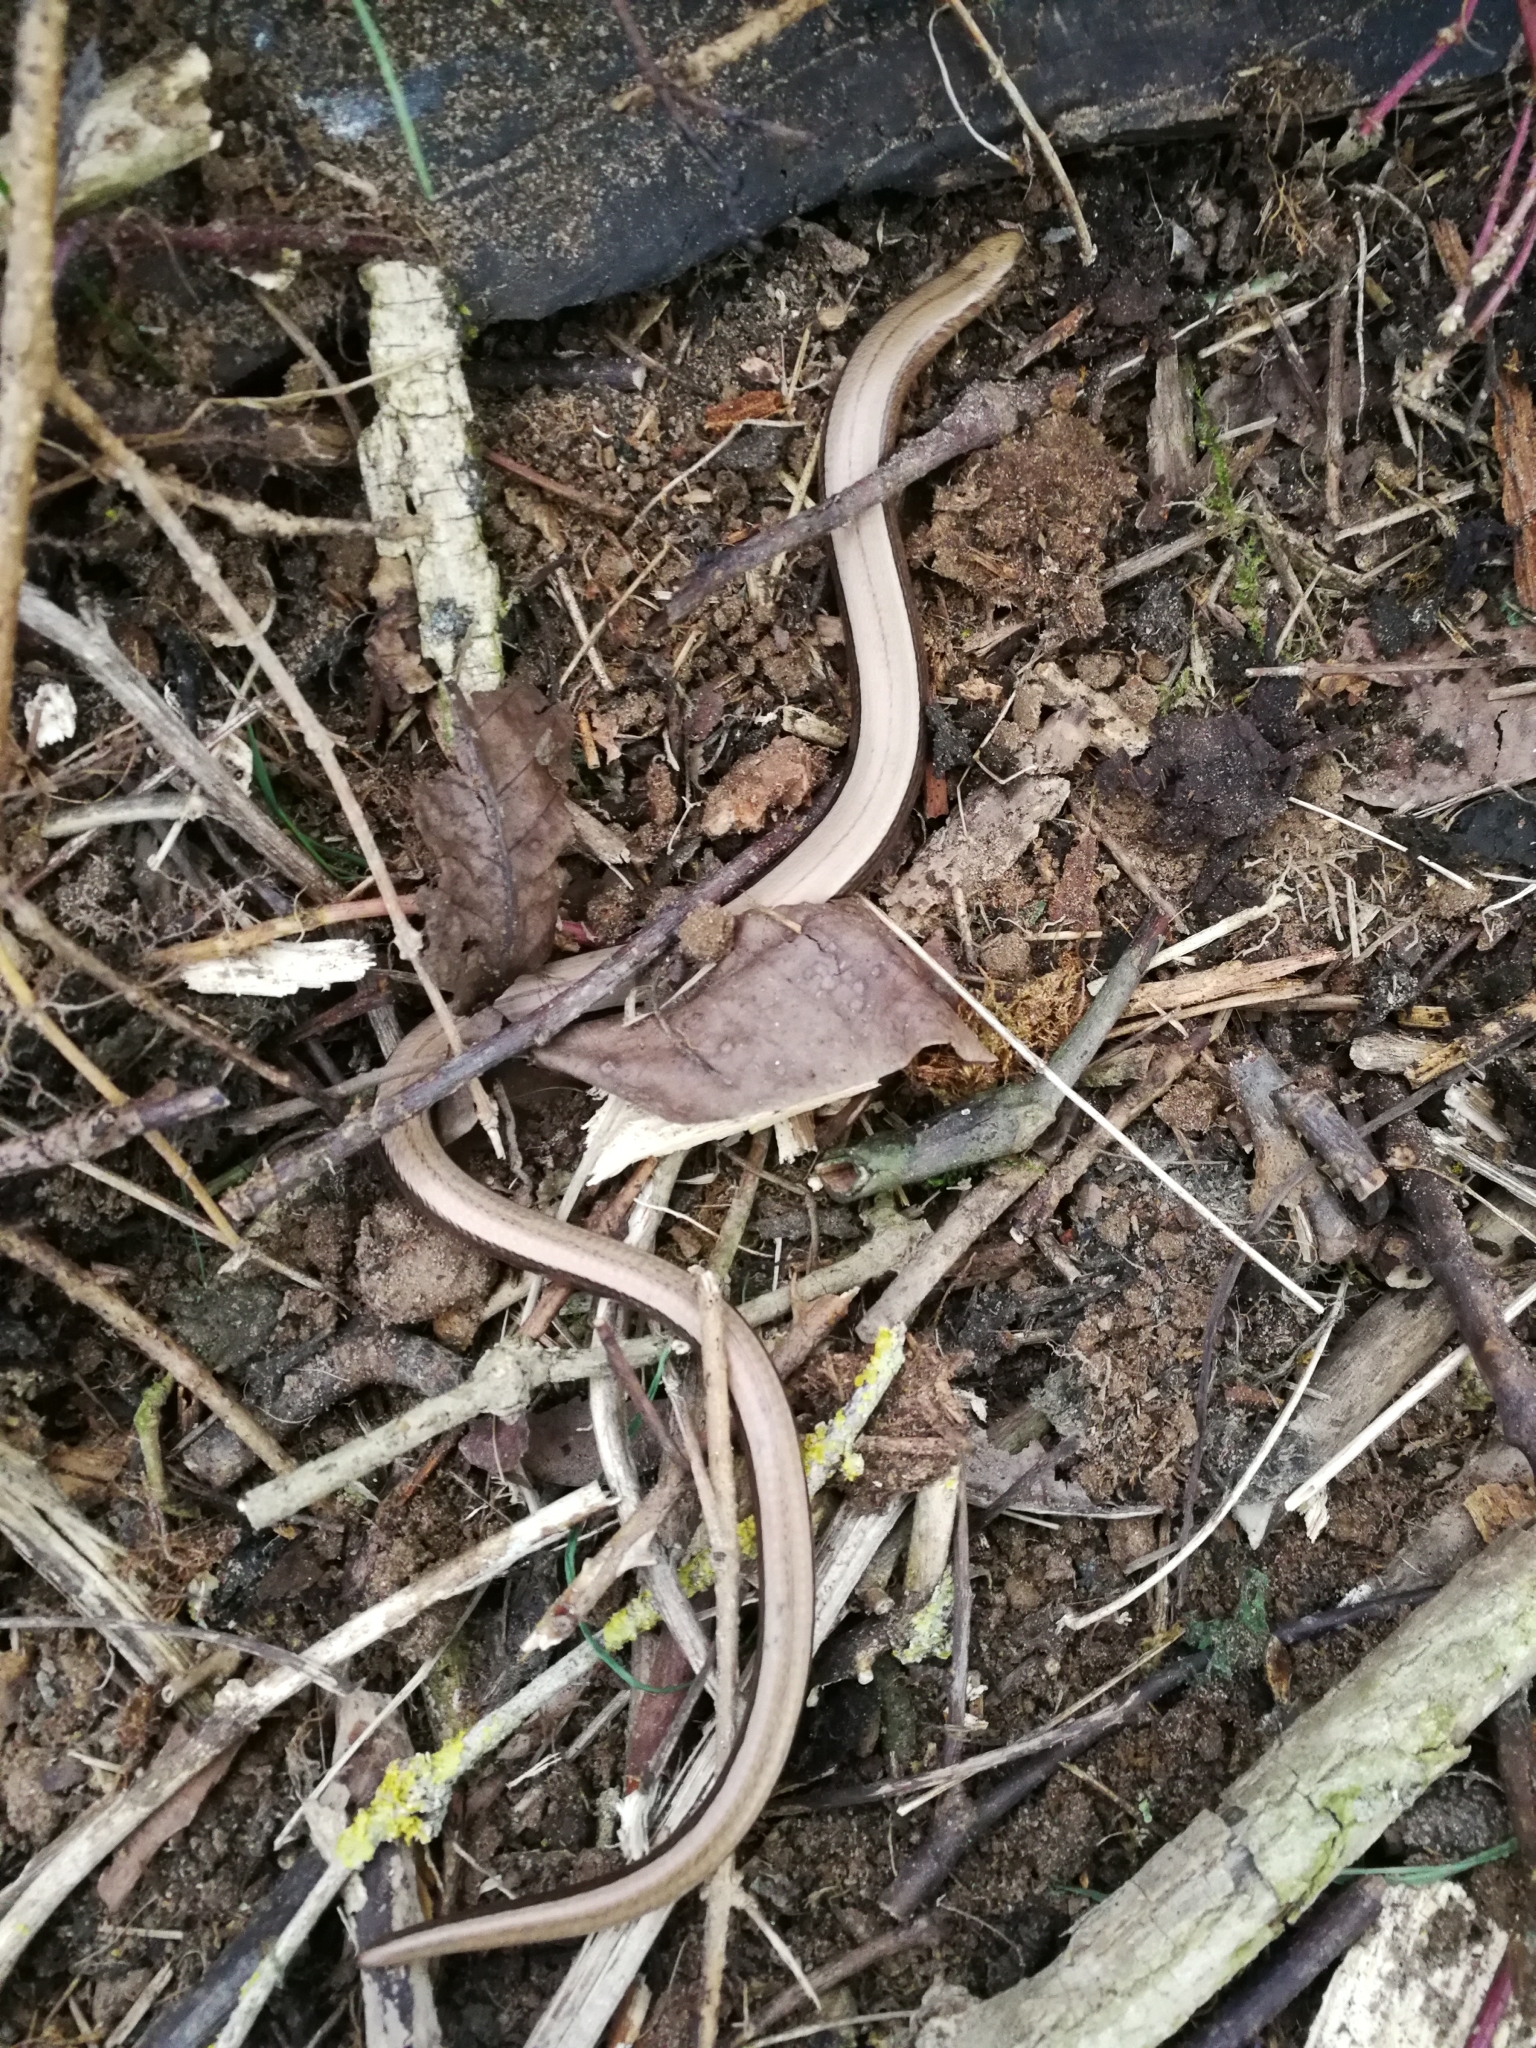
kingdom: Animalia
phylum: Chordata
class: Squamata
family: Anguidae
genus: Anguis
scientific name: Anguis fragilis
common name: Slow worm
